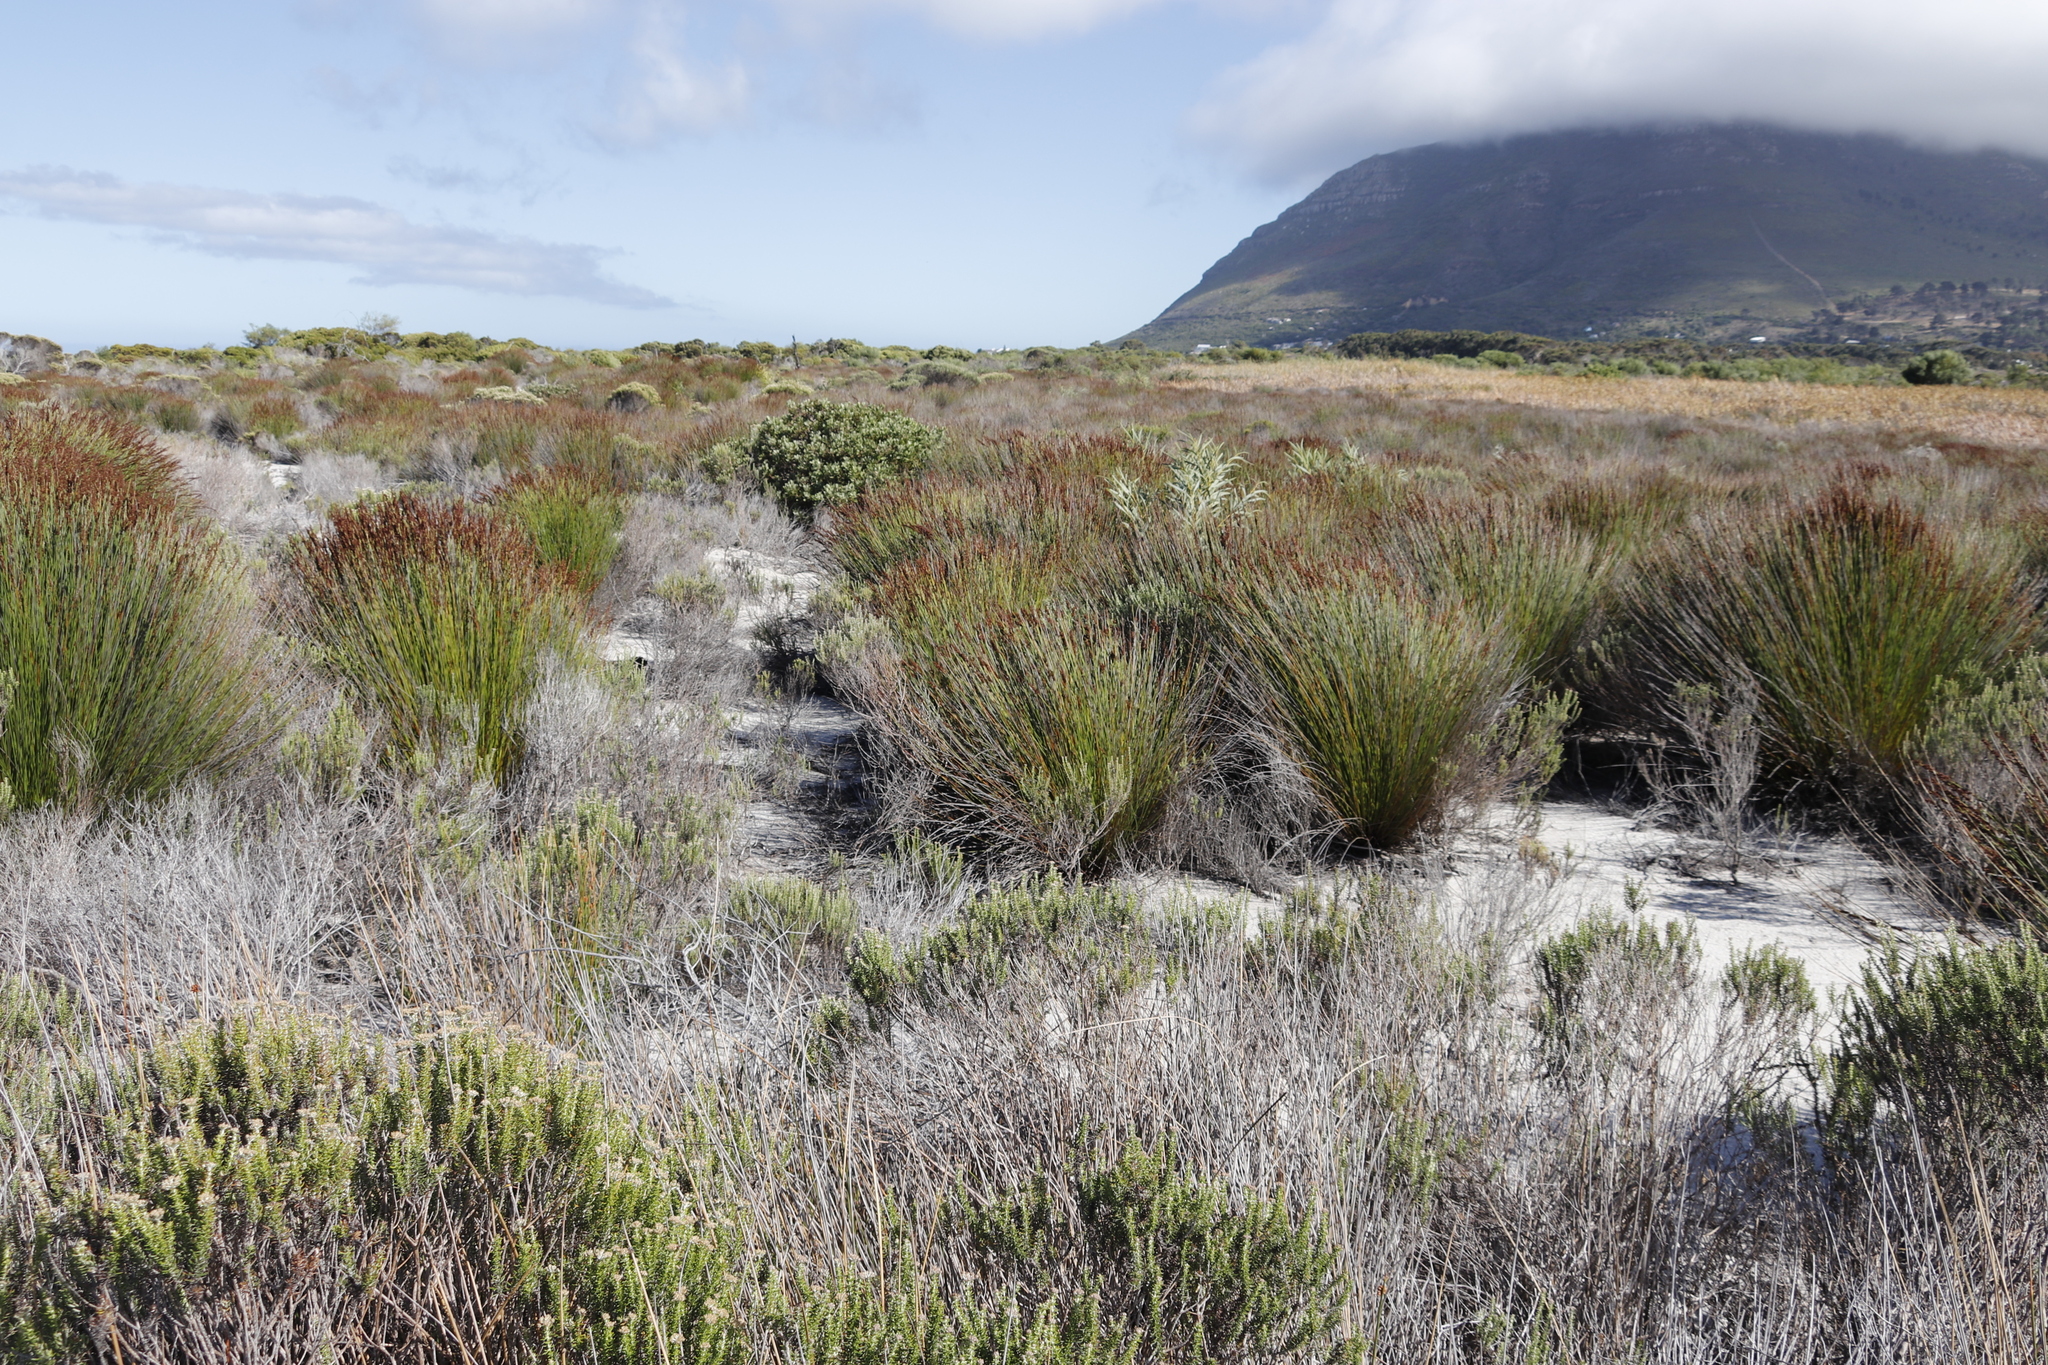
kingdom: Plantae
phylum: Tracheophyta
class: Liliopsida
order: Poales
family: Restionaceae
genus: Elegia
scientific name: Elegia tectorum
